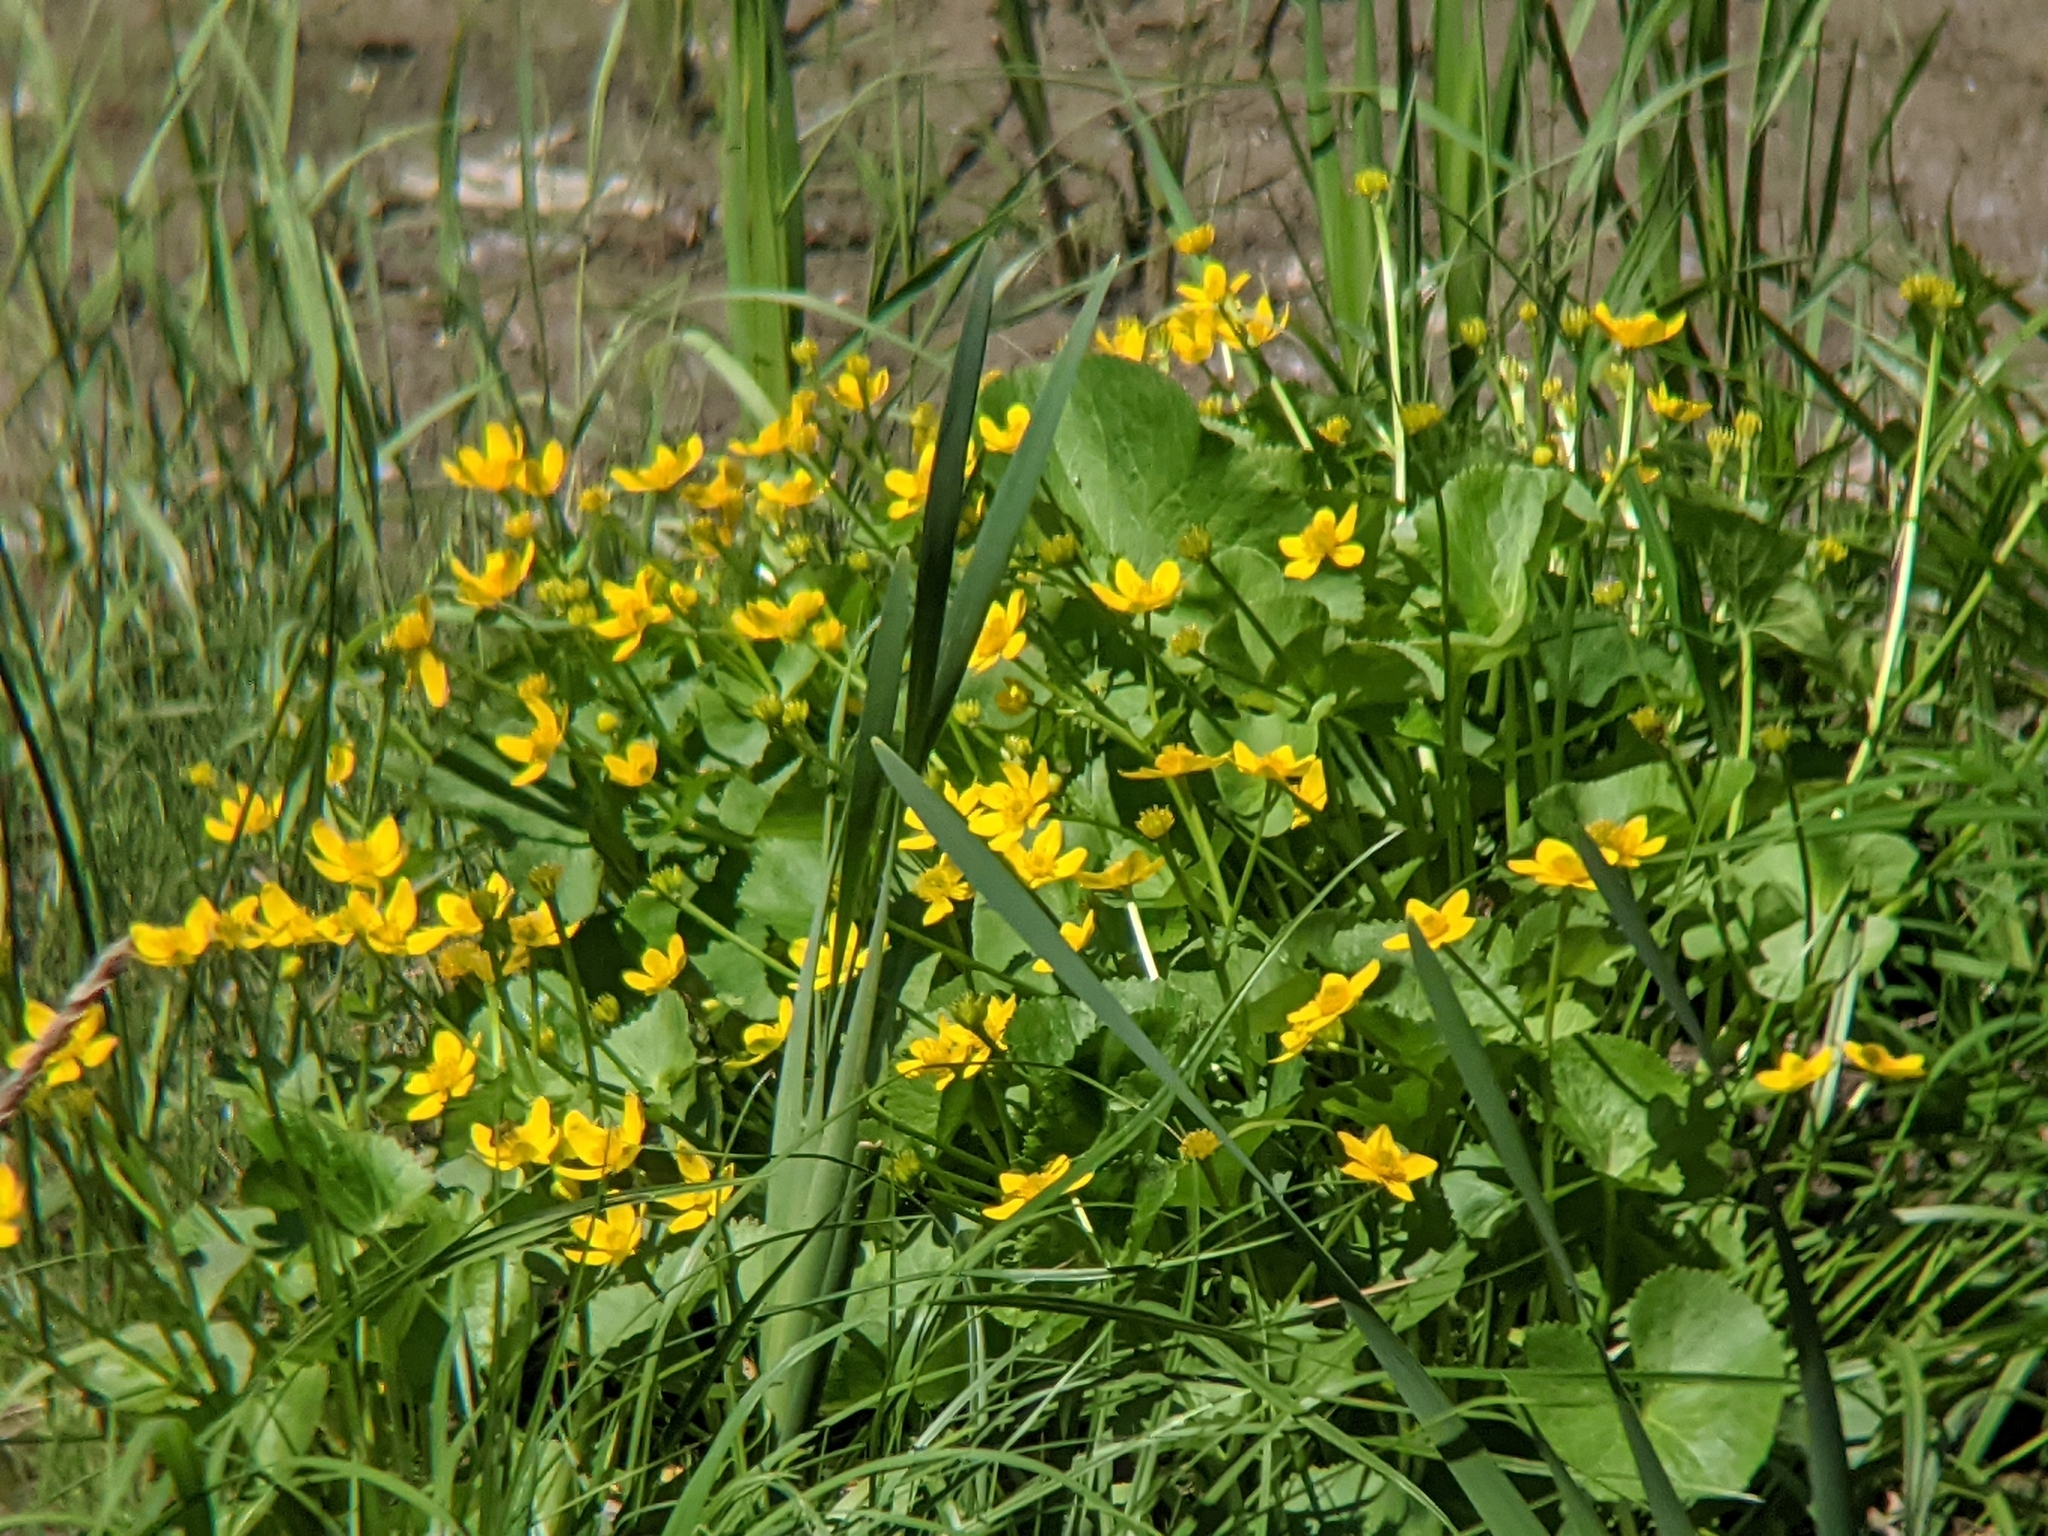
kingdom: Plantae
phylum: Tracheophyta
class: Magnoliopsida
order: Ranunculales
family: Ranunculaceae
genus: Caltha
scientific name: Caltha palustris
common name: Marsh marigold
